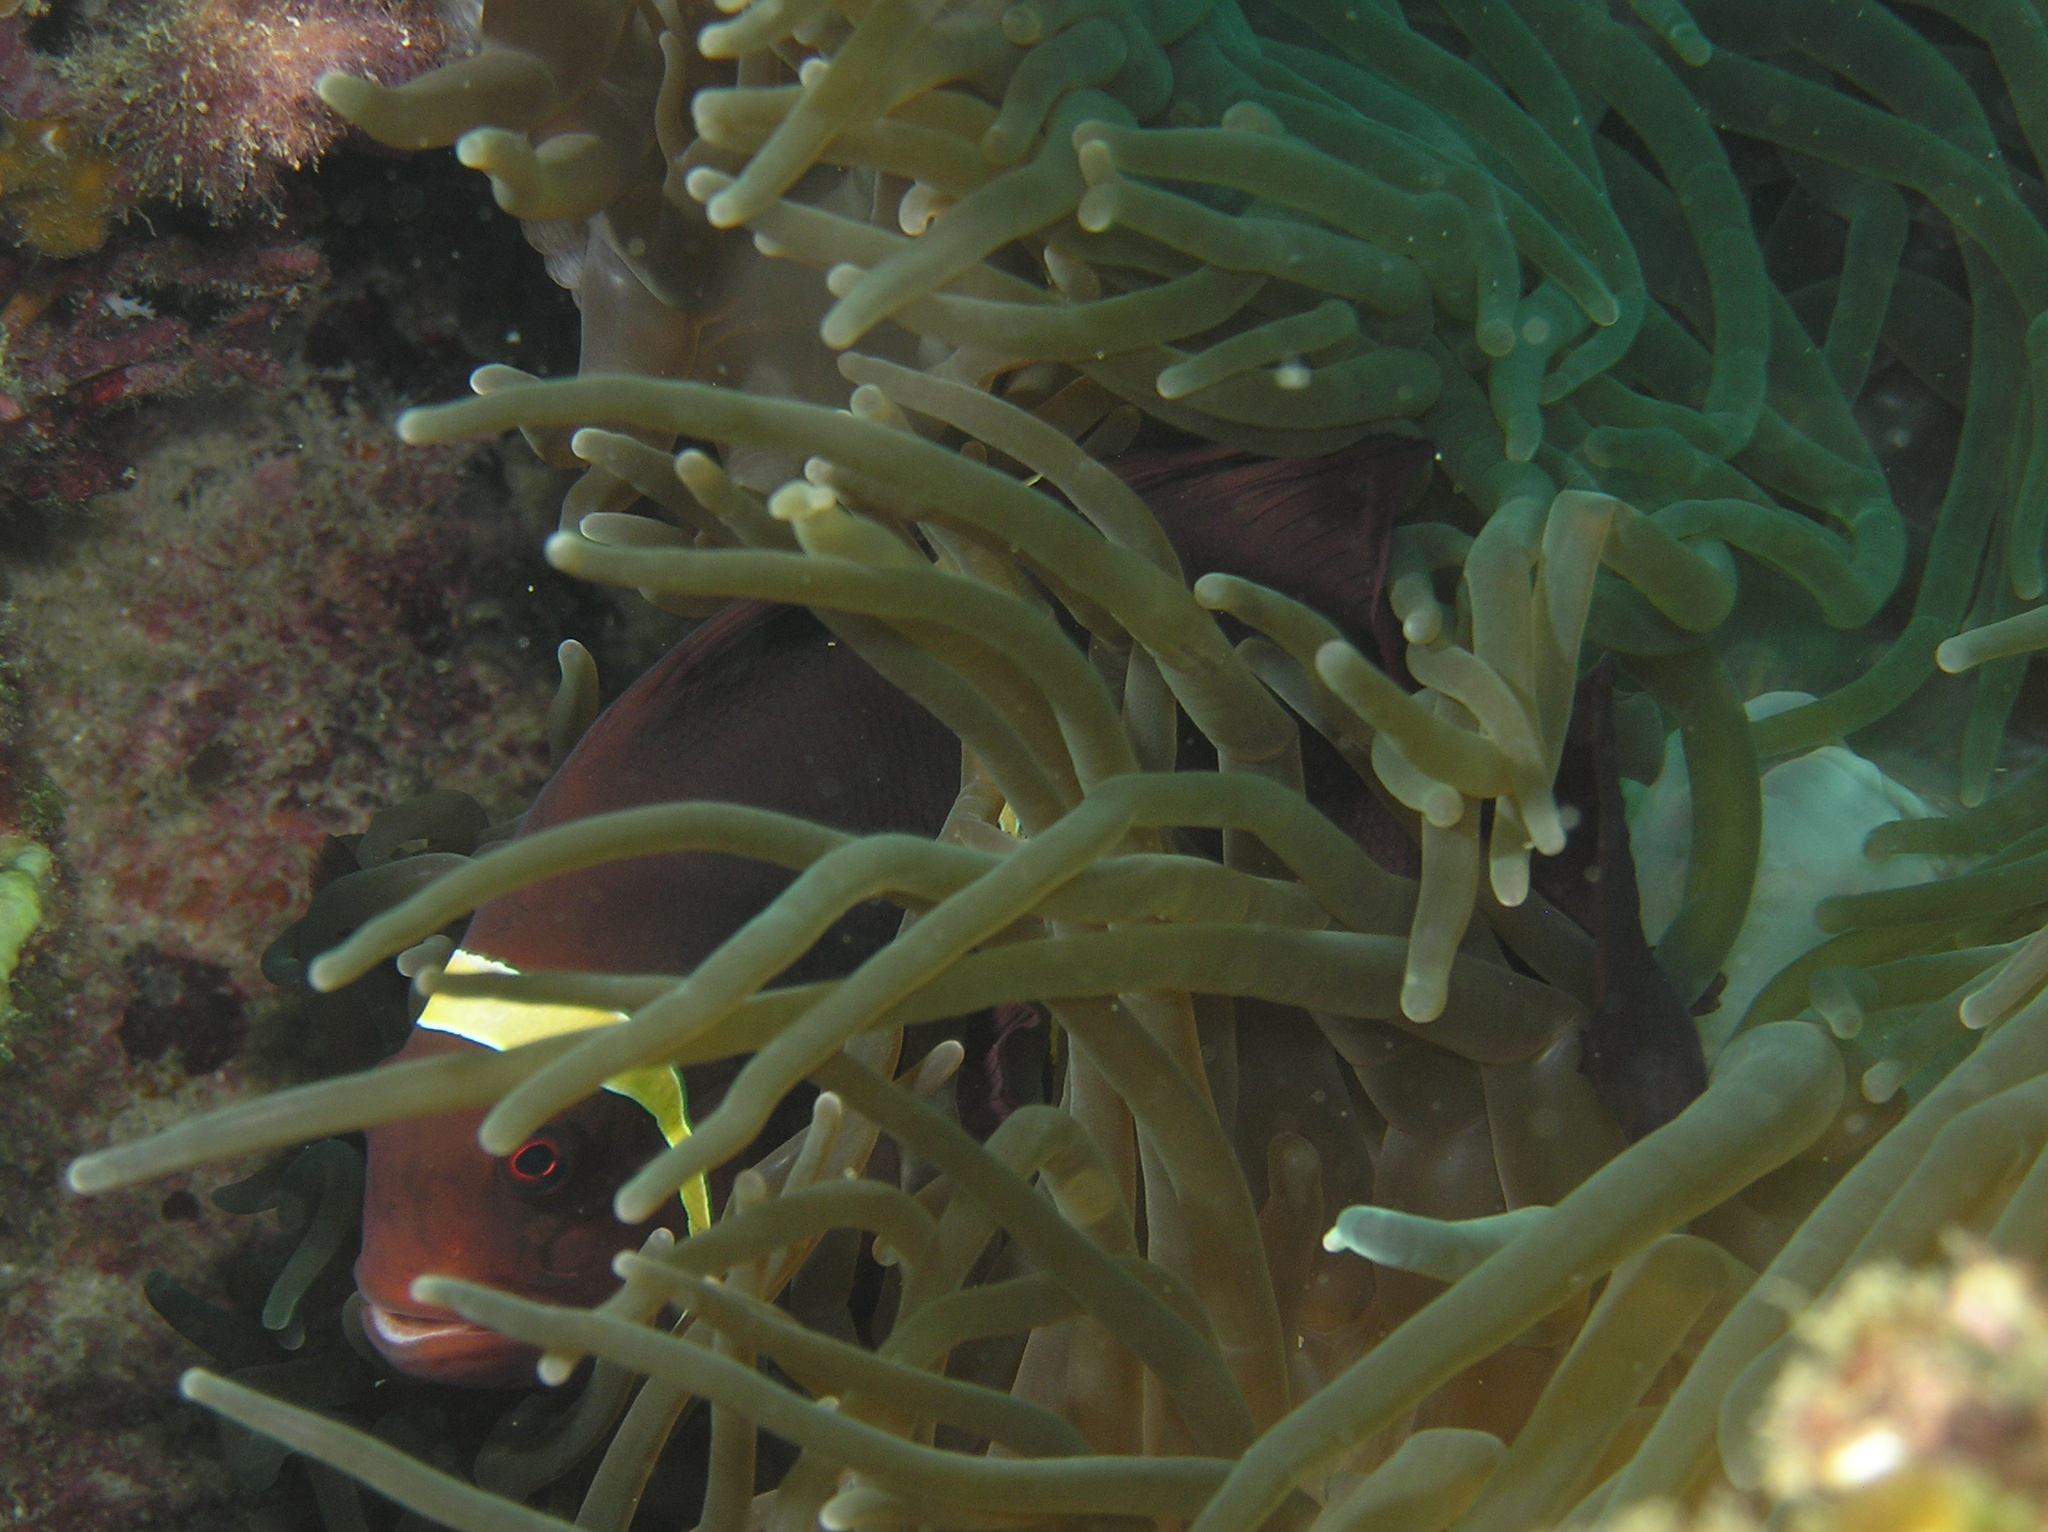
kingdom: Animalia
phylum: Chordata
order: Perciformes
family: Pomacentridae
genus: Premnas
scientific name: Premnas biaculeatus
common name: Spinecheek anemonefish
